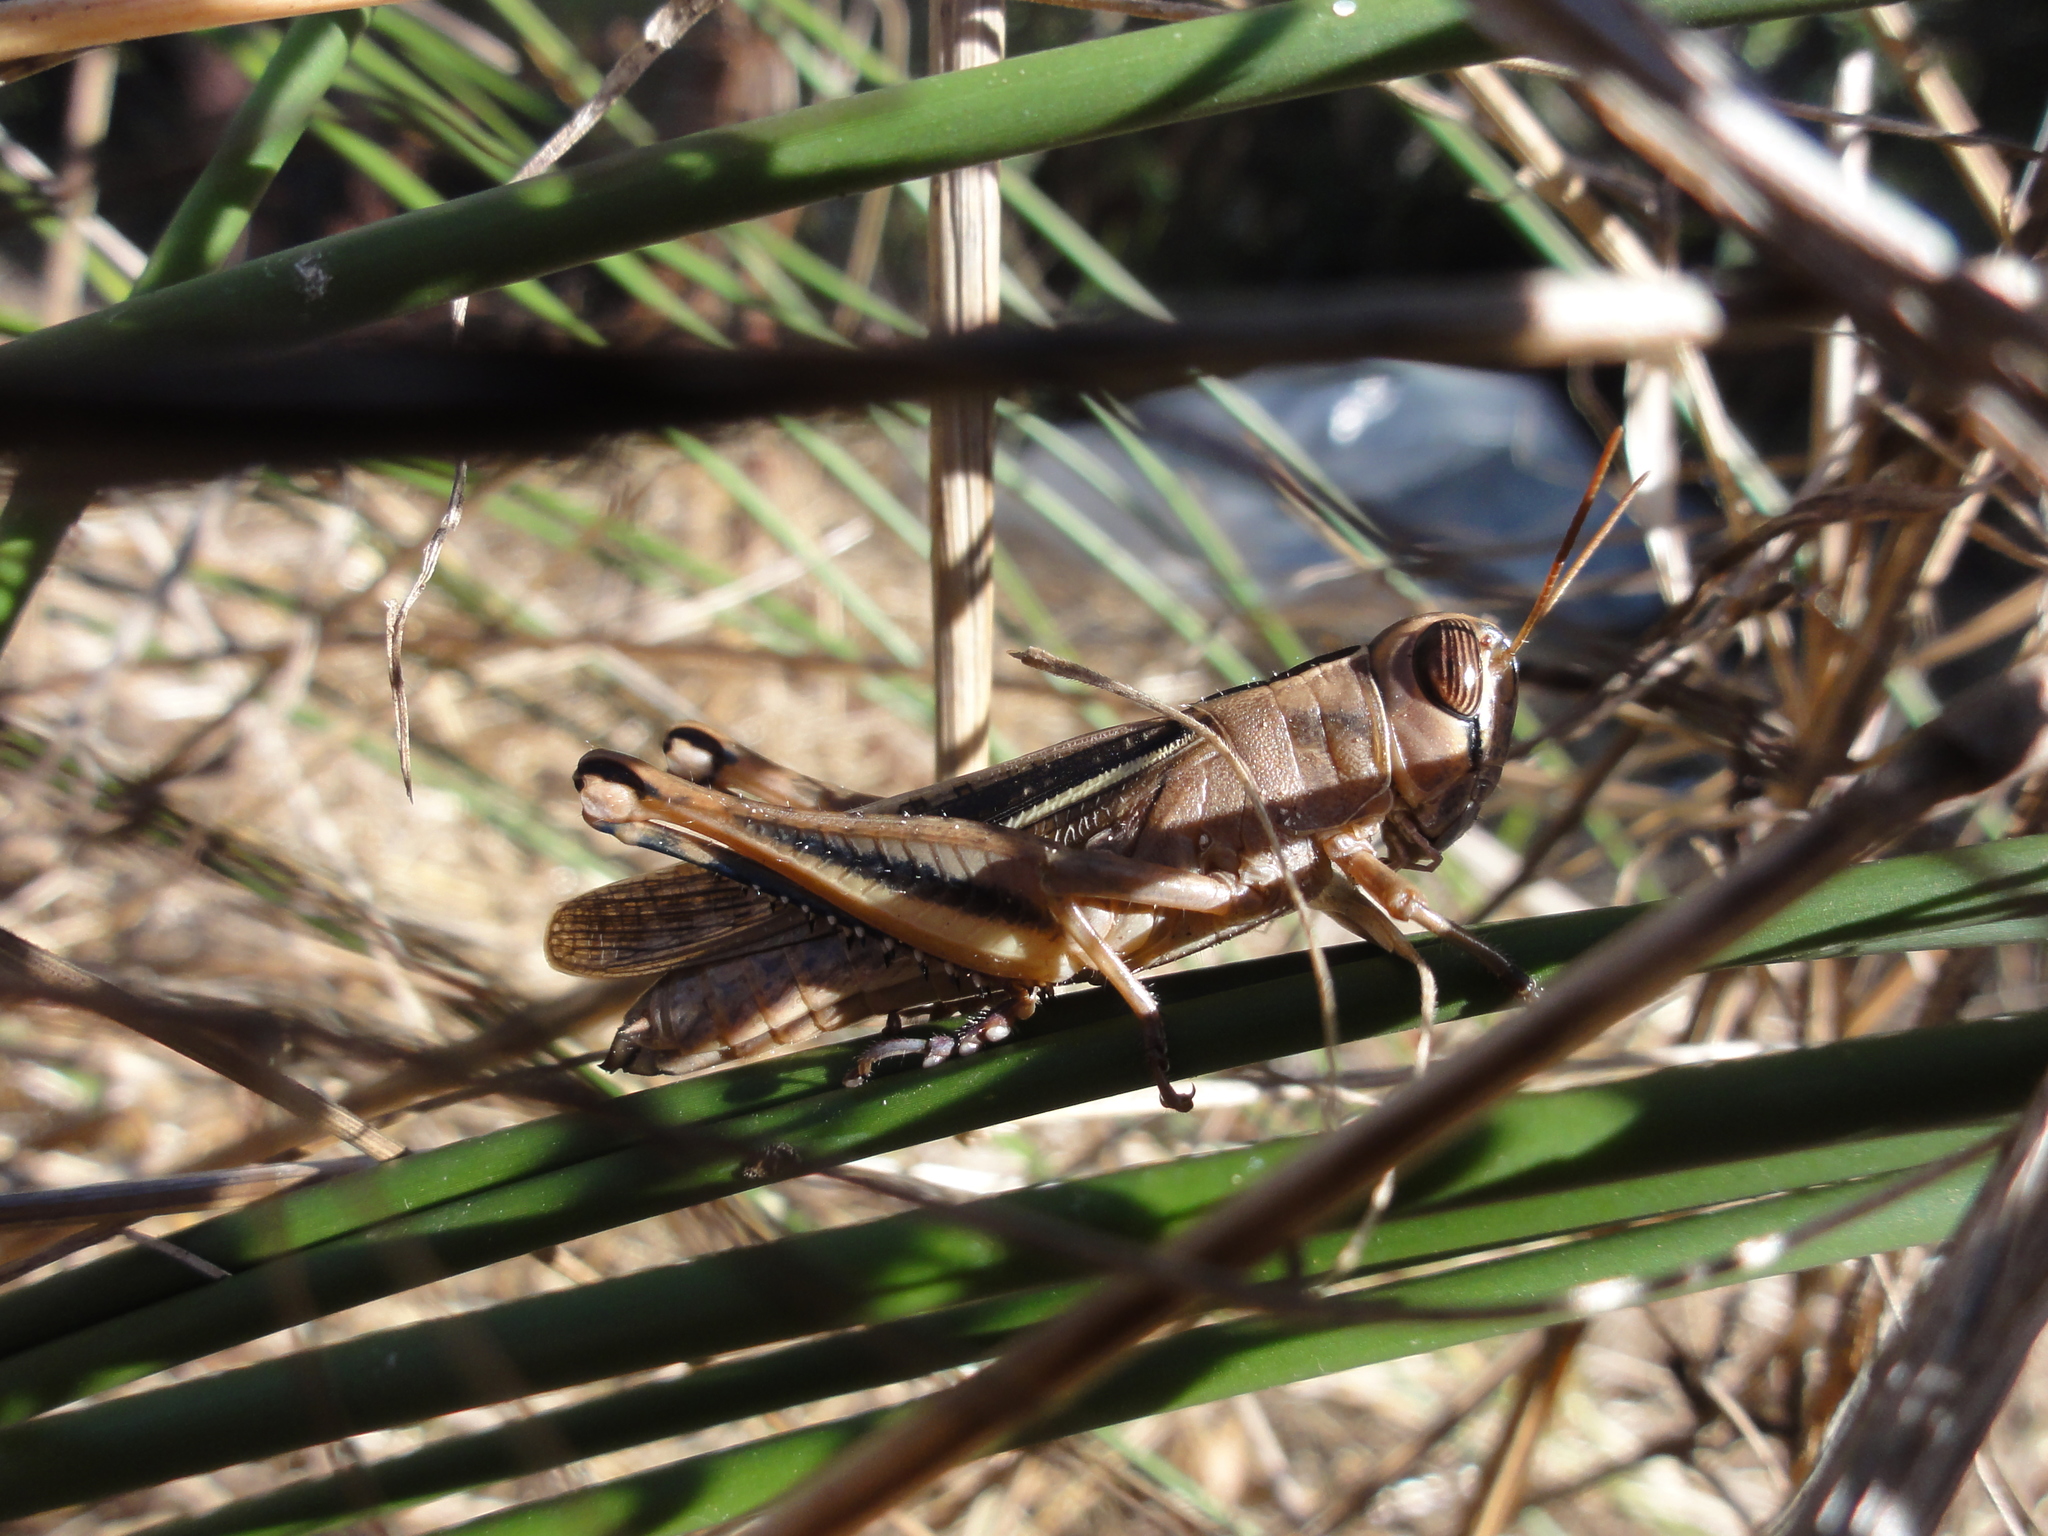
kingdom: Animalia
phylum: Arthropoda
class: Insecta
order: Orthoptera
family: Acrididae
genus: Eyprepocnemis
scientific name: Eyprepocnemis plorans
